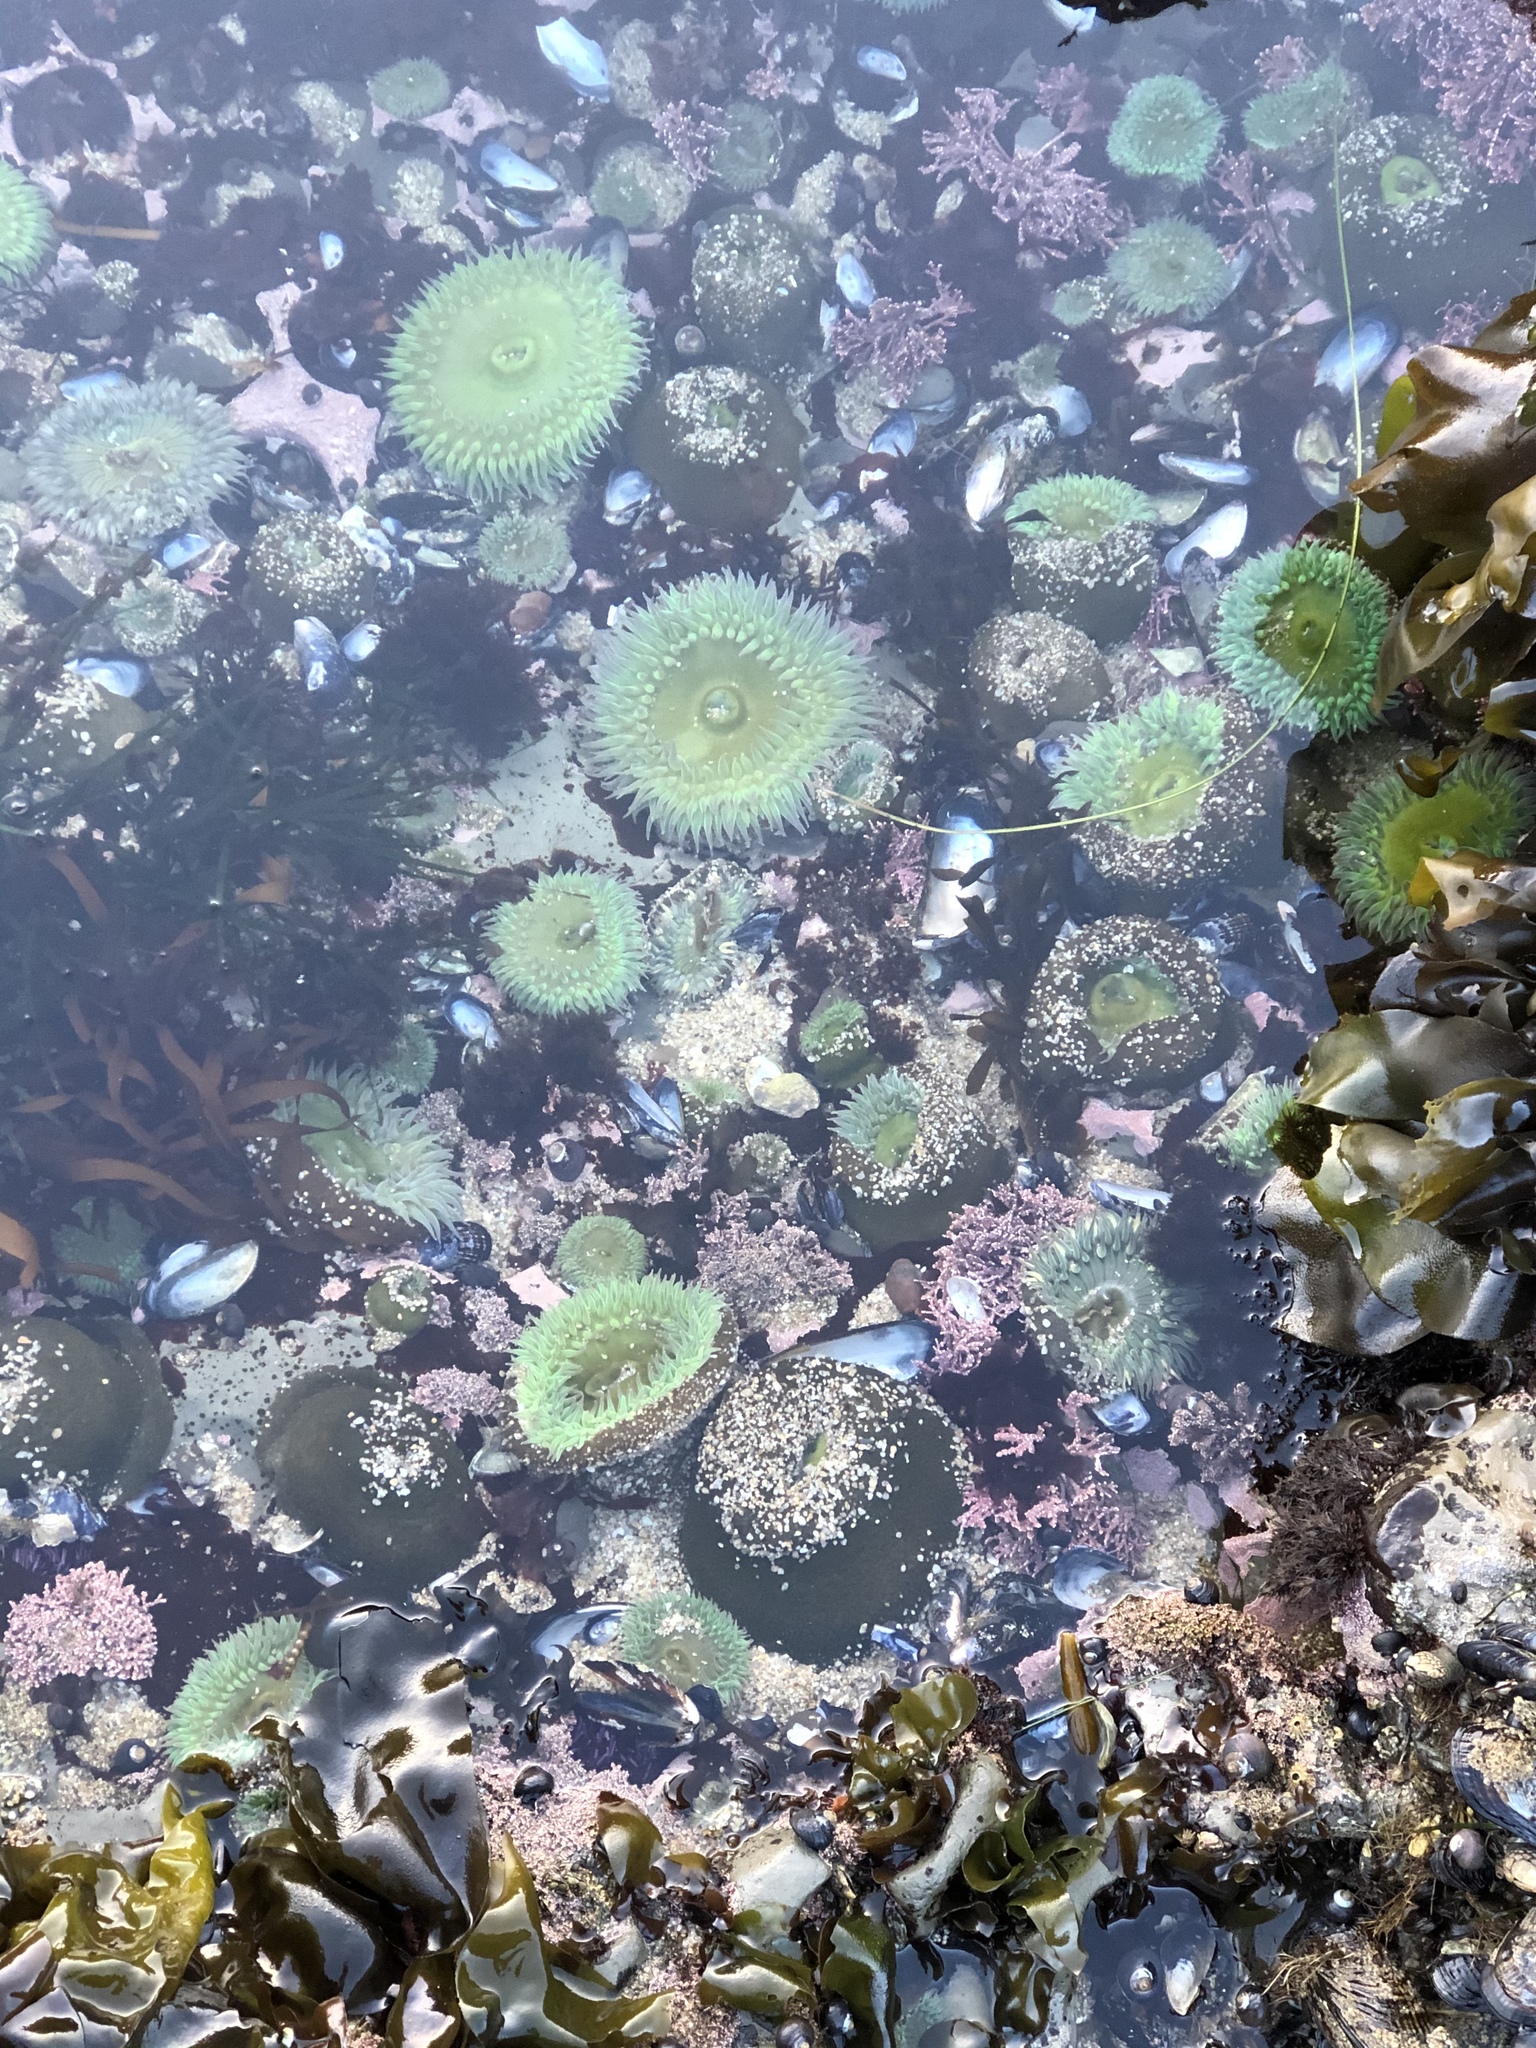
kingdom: Animalia
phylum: Cnidaria
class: Anthozoa
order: Actiniaria
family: Actiniidae
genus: Anthopleura
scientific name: Anthopleura xanthogrammica
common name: Giant green anemone
